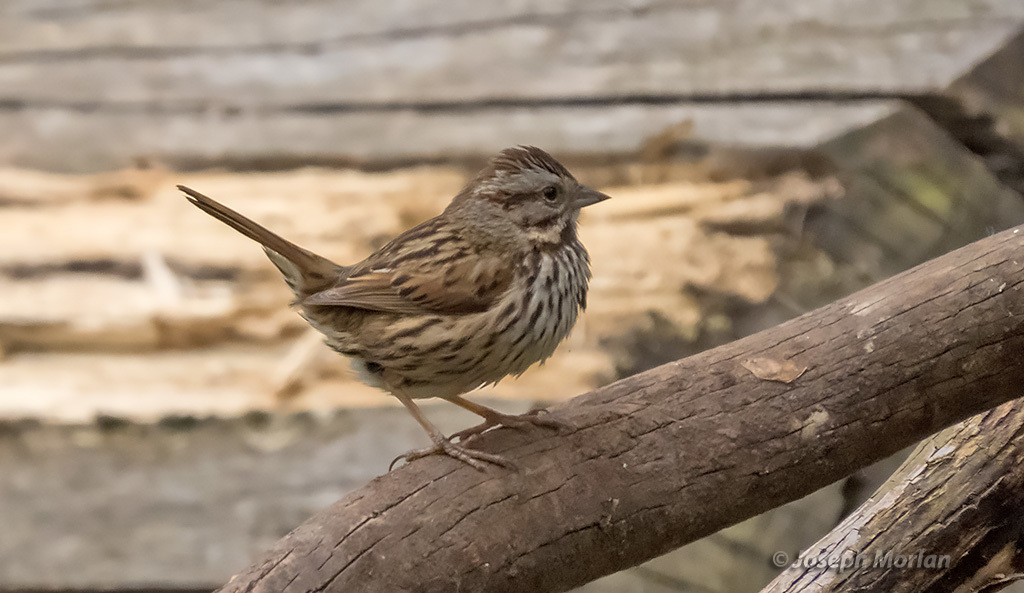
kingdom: Animalia
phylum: Chordata
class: Aves
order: Passeriformes
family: Passerellidae
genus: Melospiza
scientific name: Melospiza melodia
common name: Song sparrow
